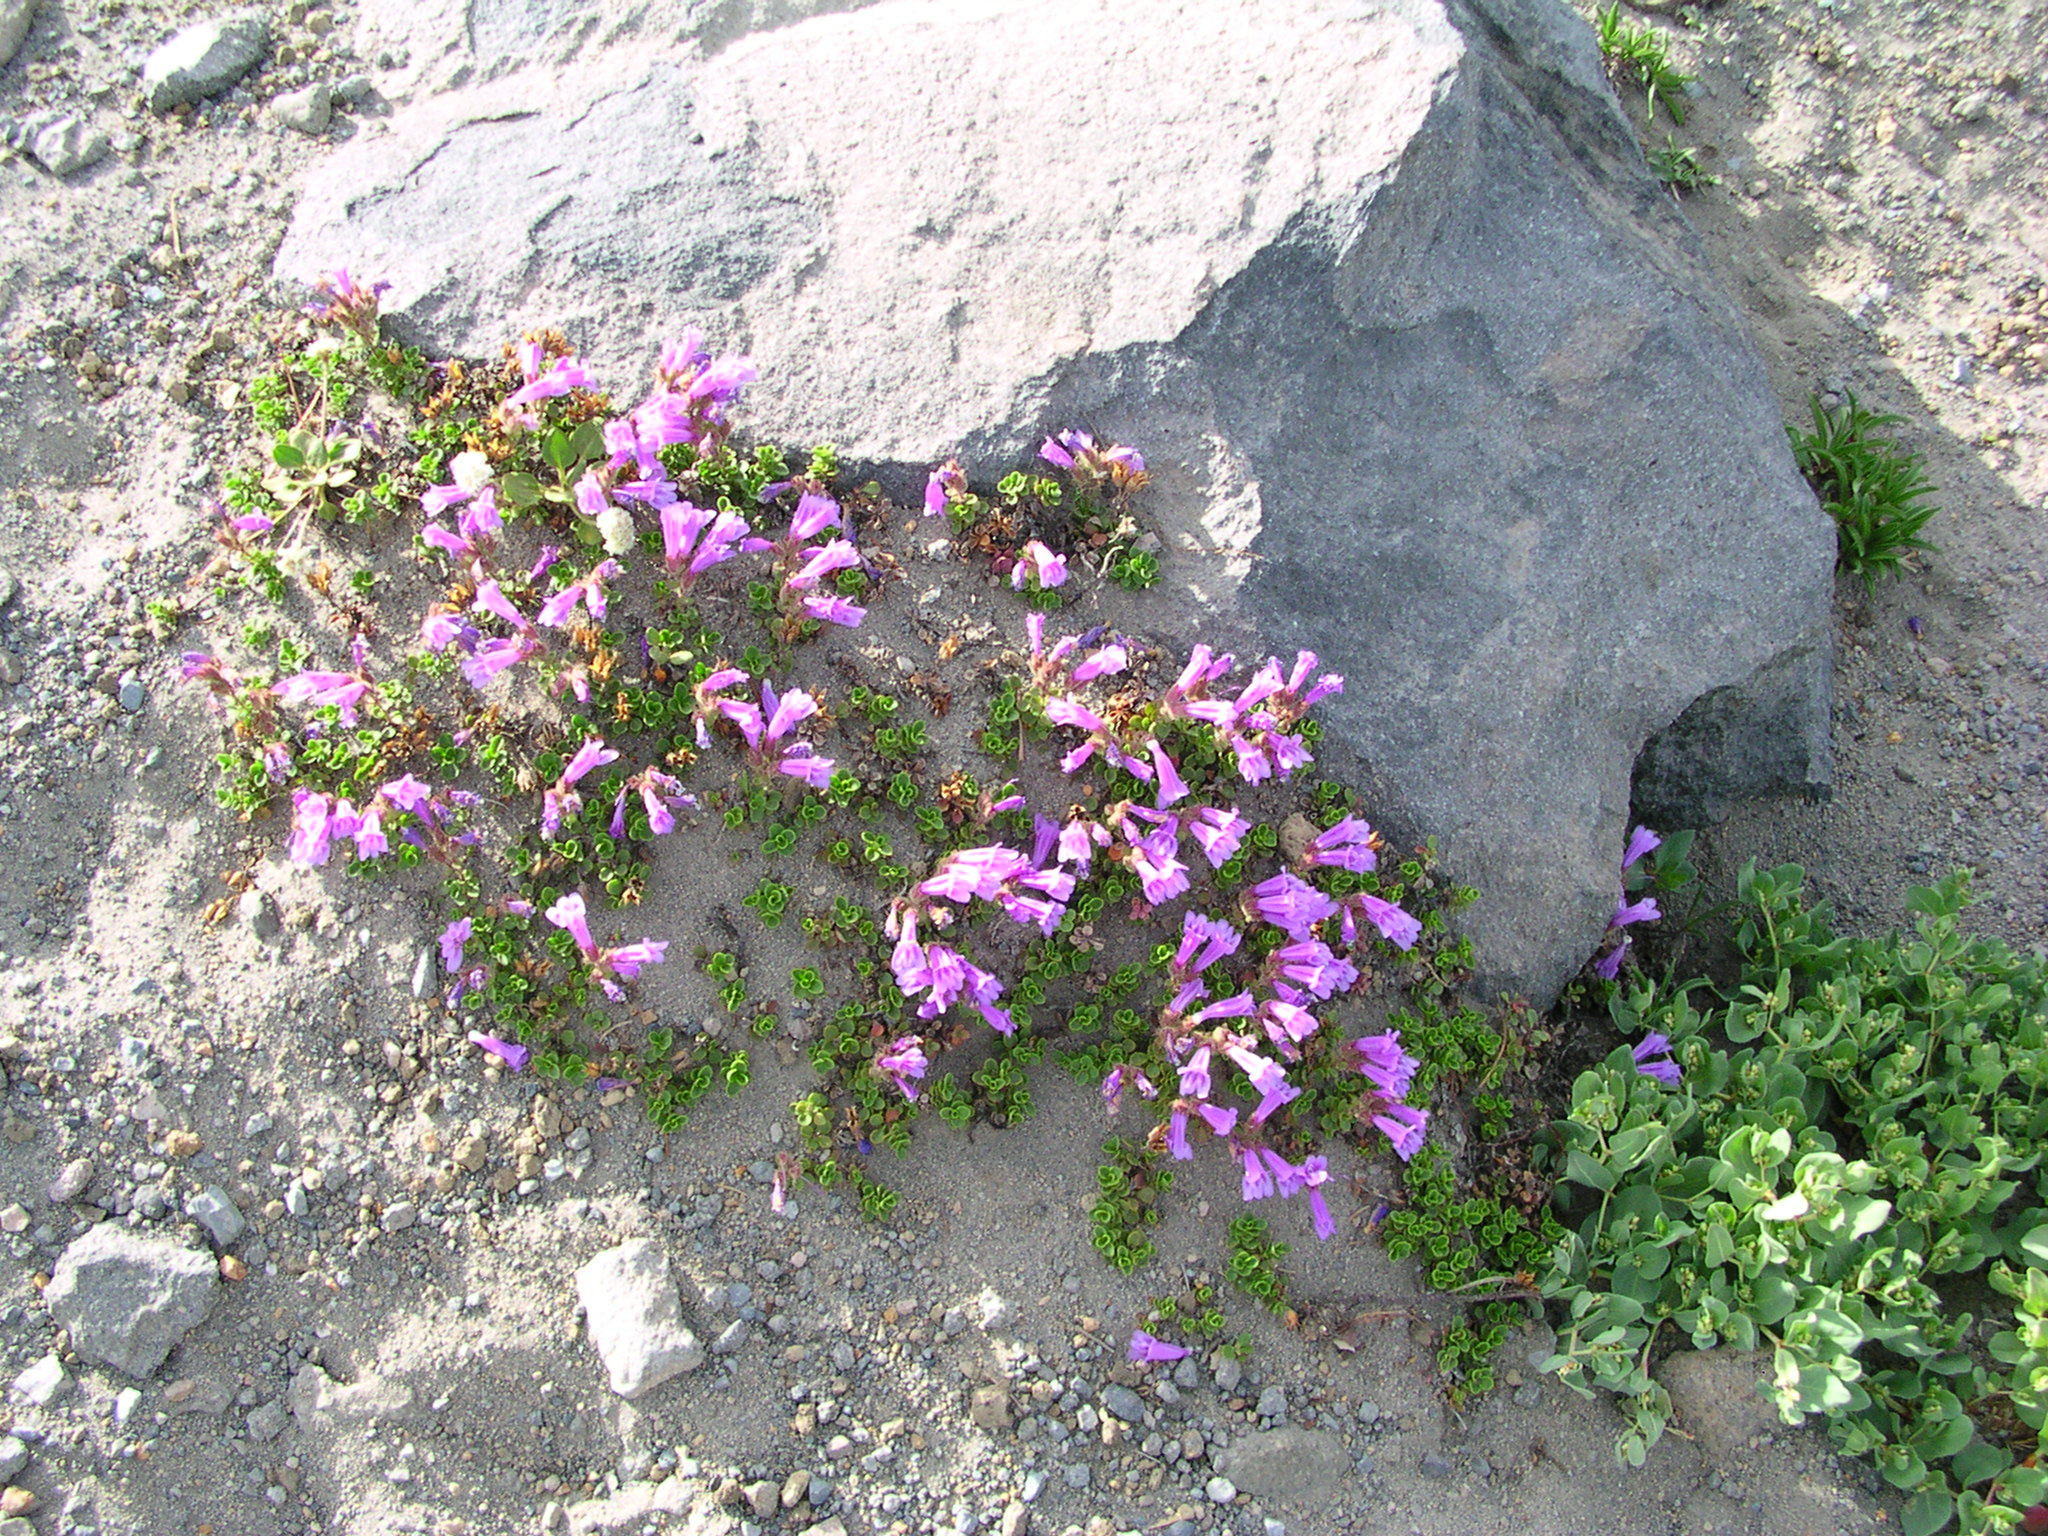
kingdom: Plantae
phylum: Tracheophyta
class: Magnoliopsida
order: Lamiales
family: Plantaginaceae
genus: Penstemon
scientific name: Penstemon davidsonii
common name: Davidson's penstemon
